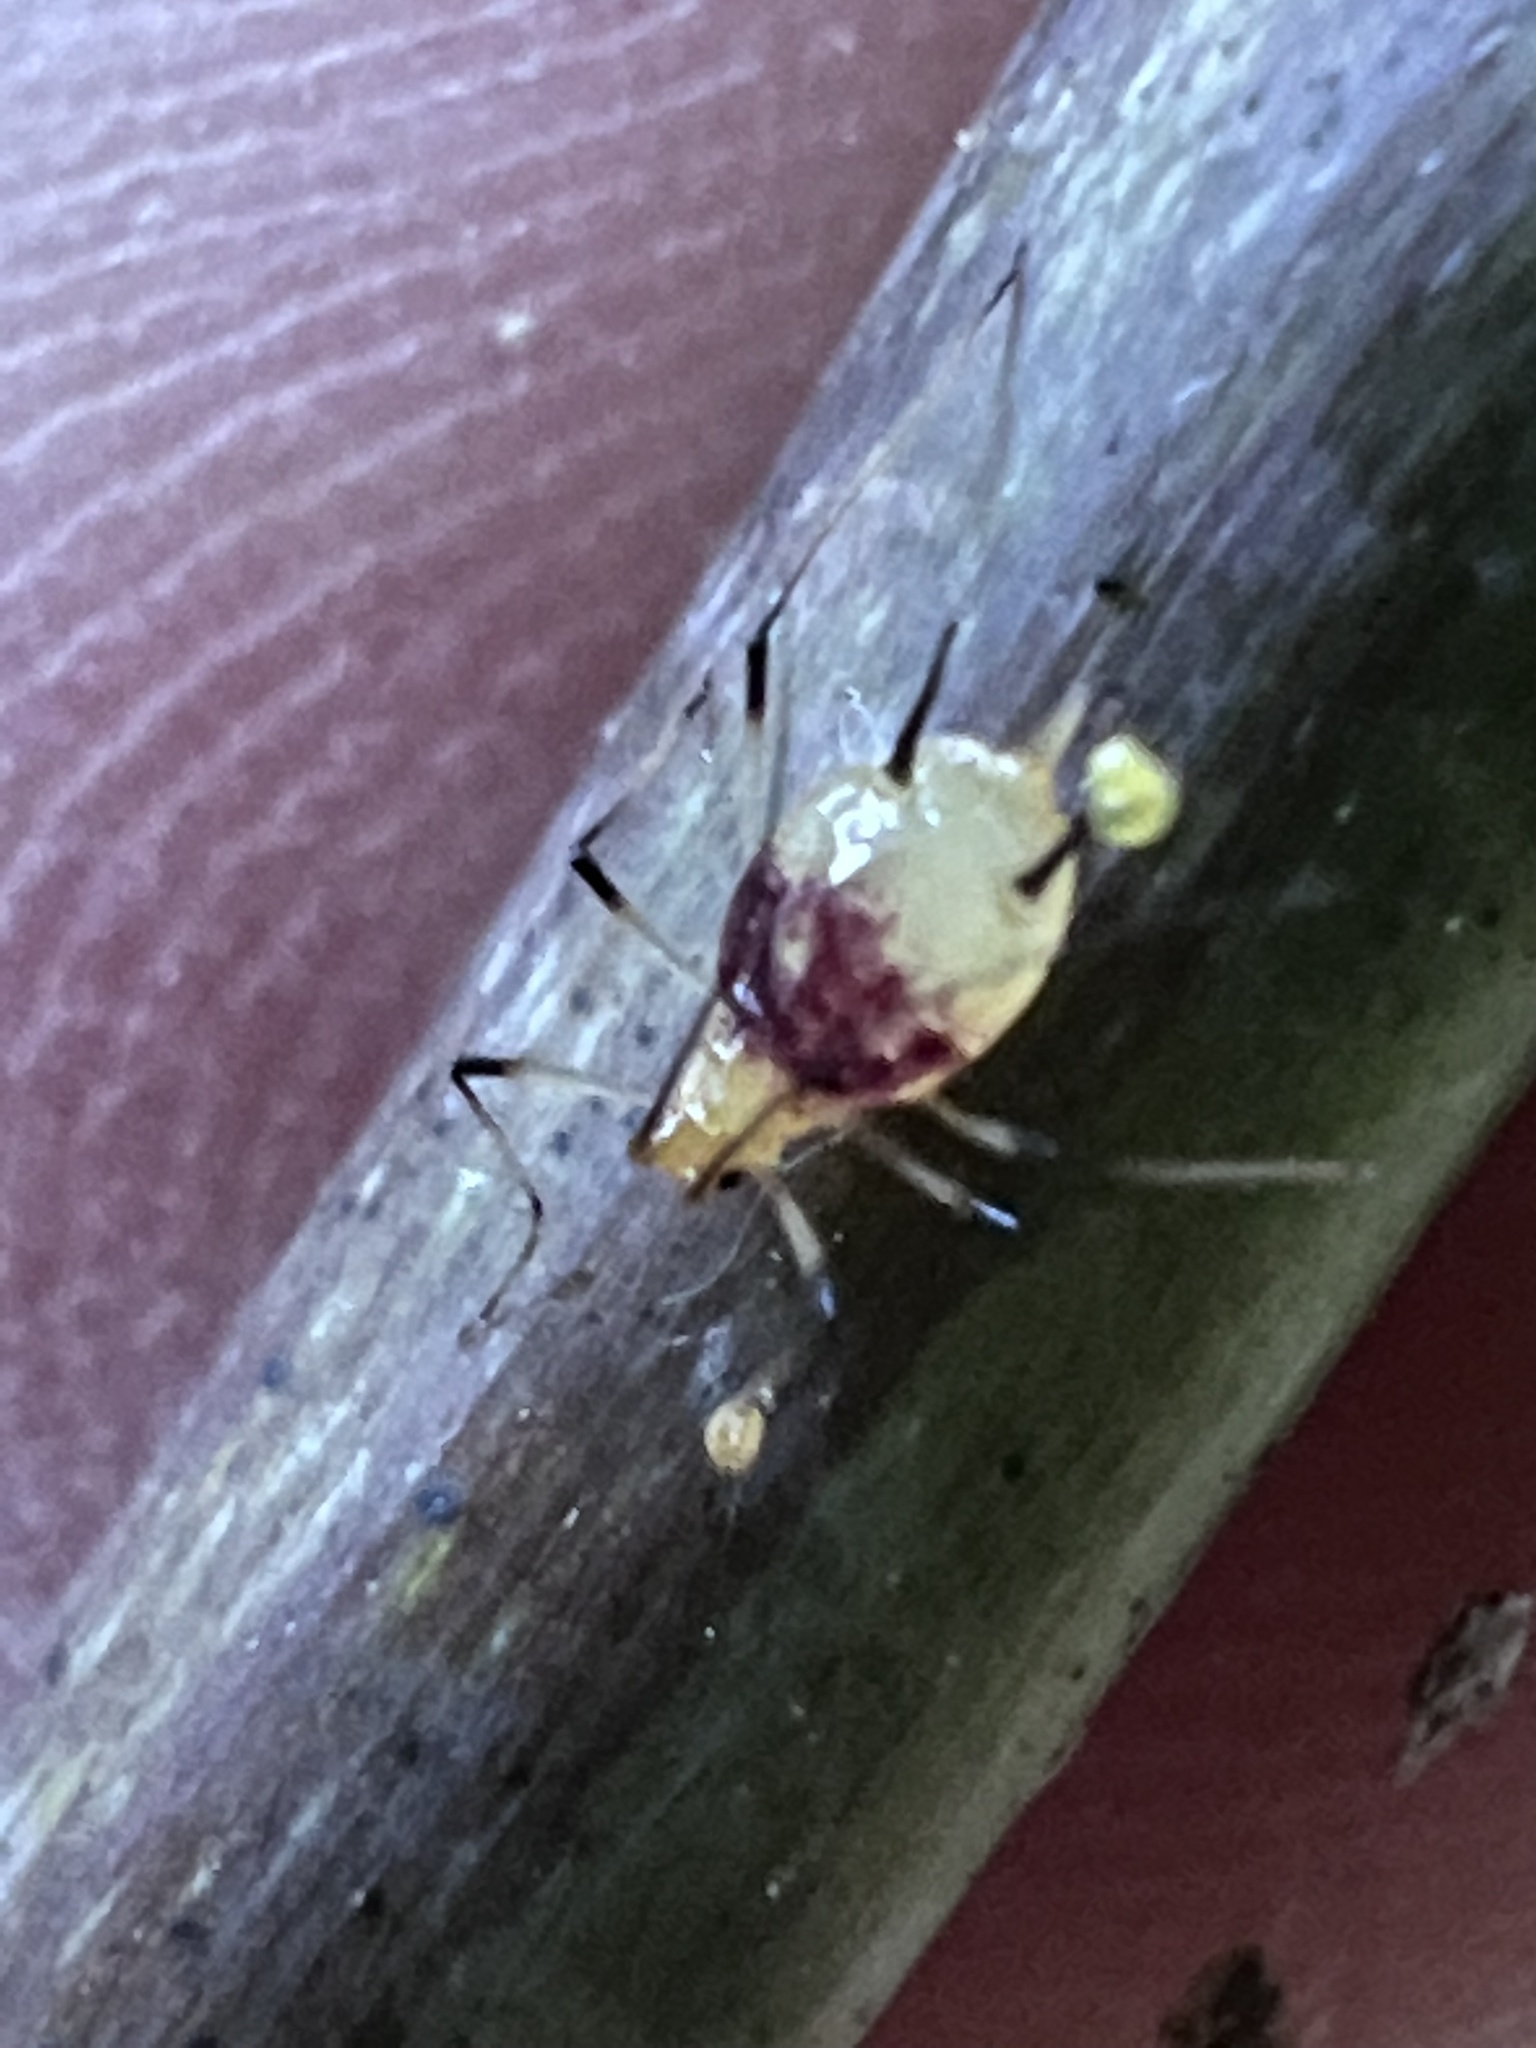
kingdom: Animalia
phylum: Arthropoda
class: Insecta
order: Hemiptera
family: Aphididae
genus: Macrosiphum
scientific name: Macrosiphum lilii
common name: Purplespotted lily aphid
